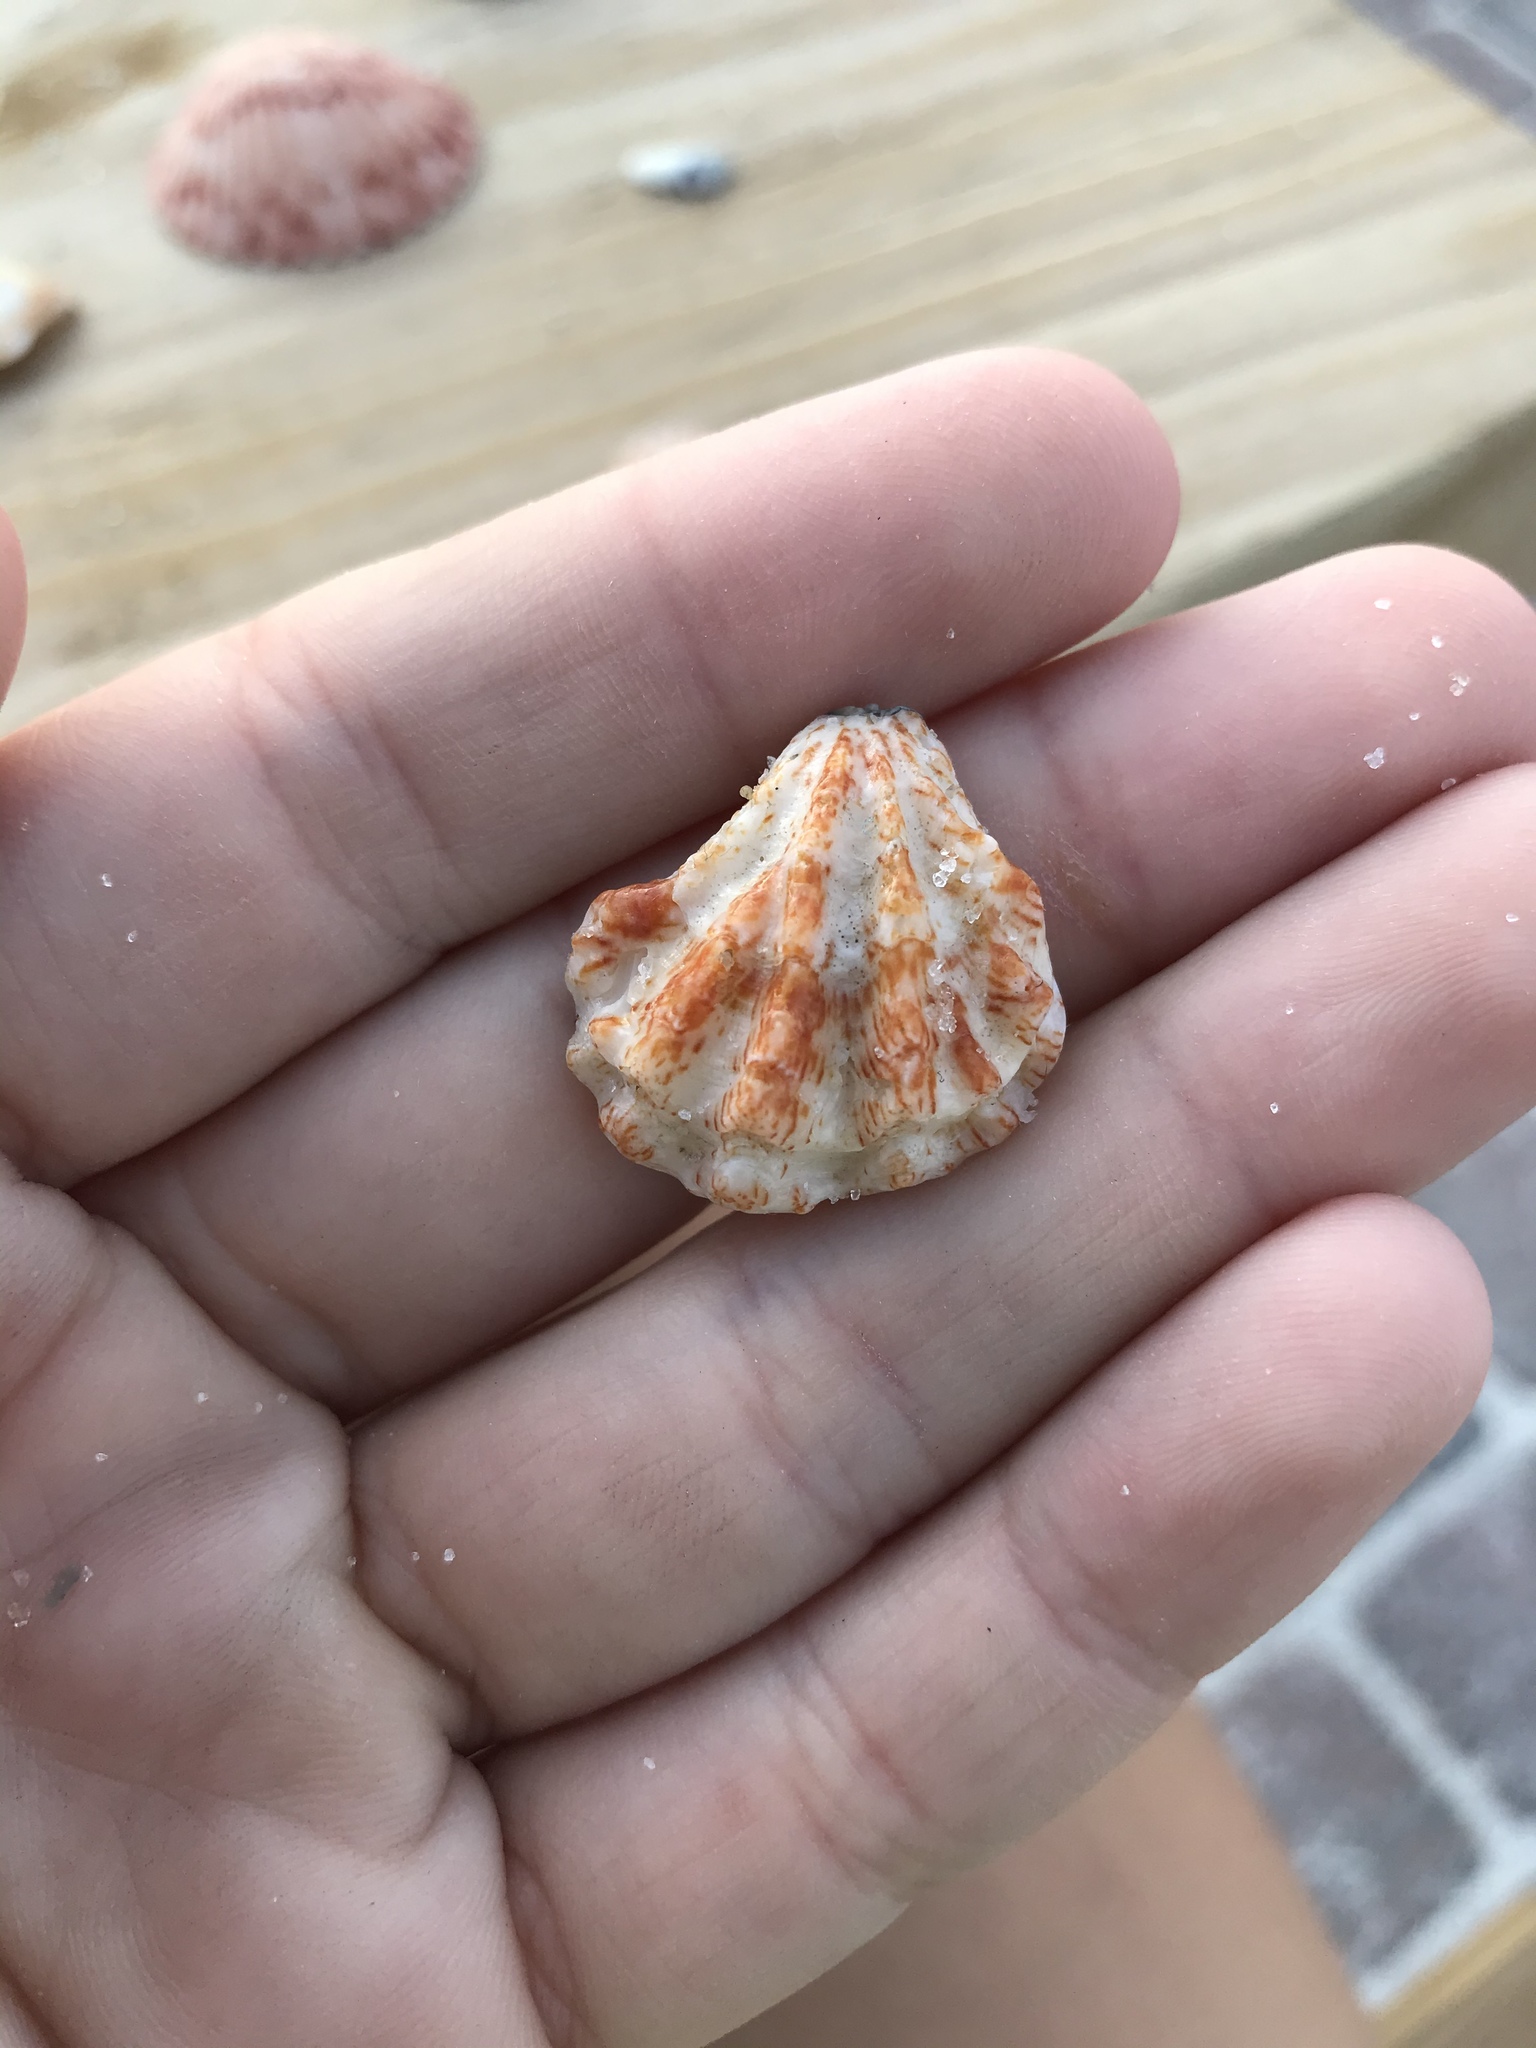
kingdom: Animalia
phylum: Mollusca
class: Bivalvia
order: Pectinida
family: Plicatulidae
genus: Plicatula
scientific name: Plicatula gibbosa
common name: Atlantic kitten's paw
